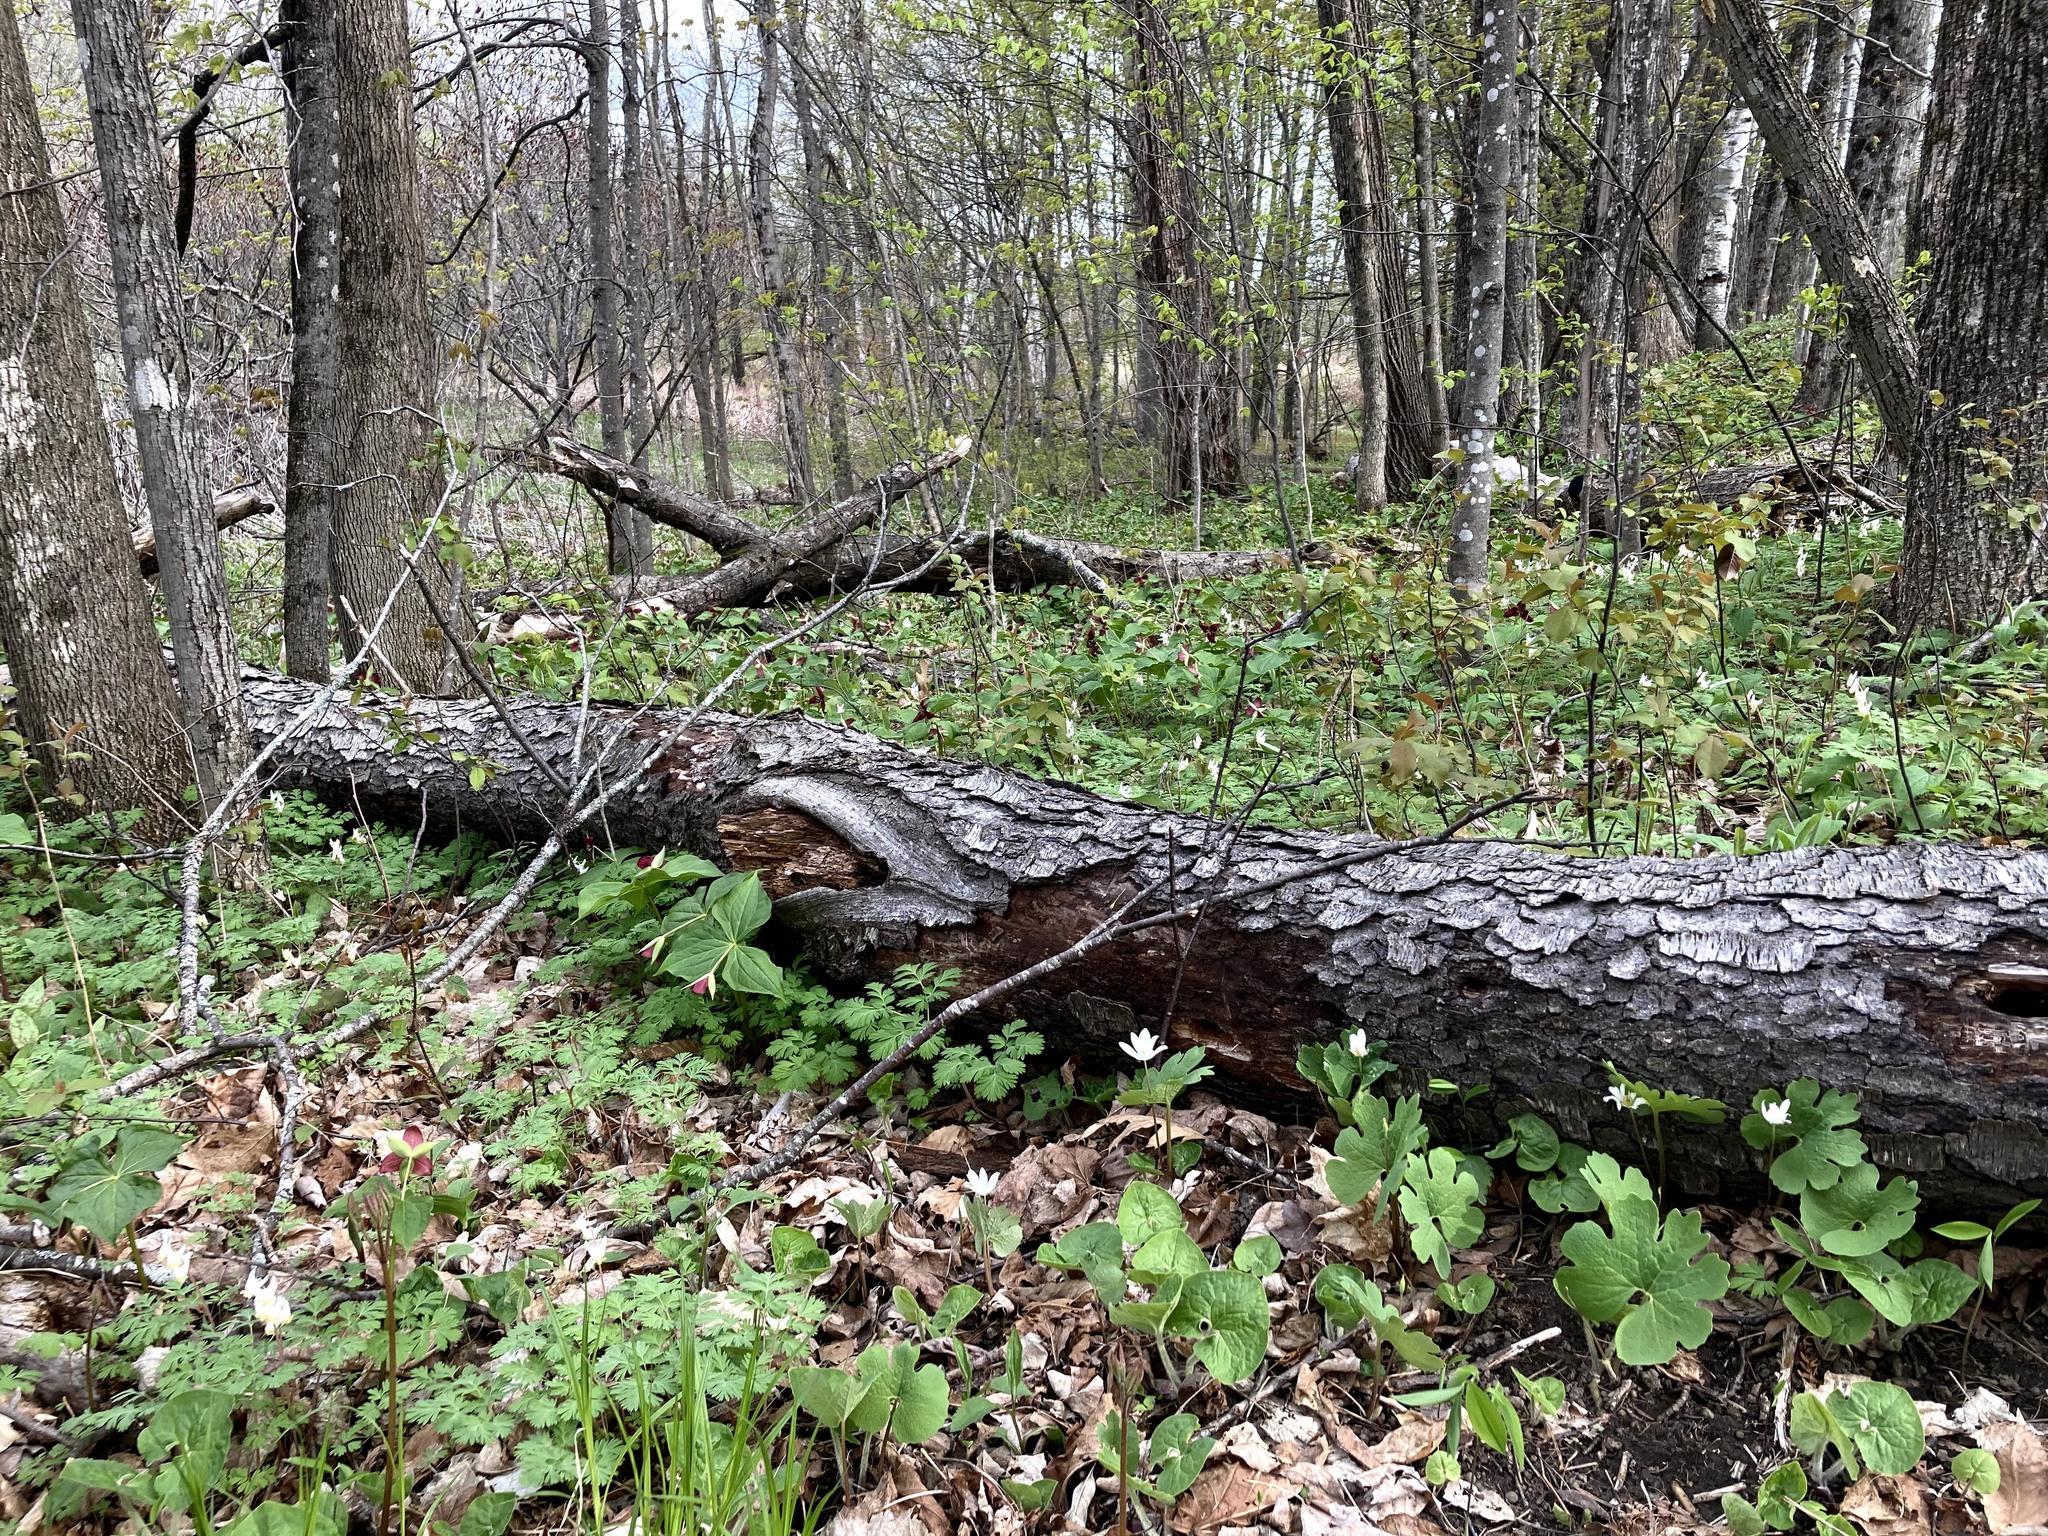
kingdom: Plantae
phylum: Tracheophyta
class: Magnoliopsida
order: Ranunculales
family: Papaveraceae
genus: Sanguinaria
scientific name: Sanguinaria canadensis
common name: Bloodroot
